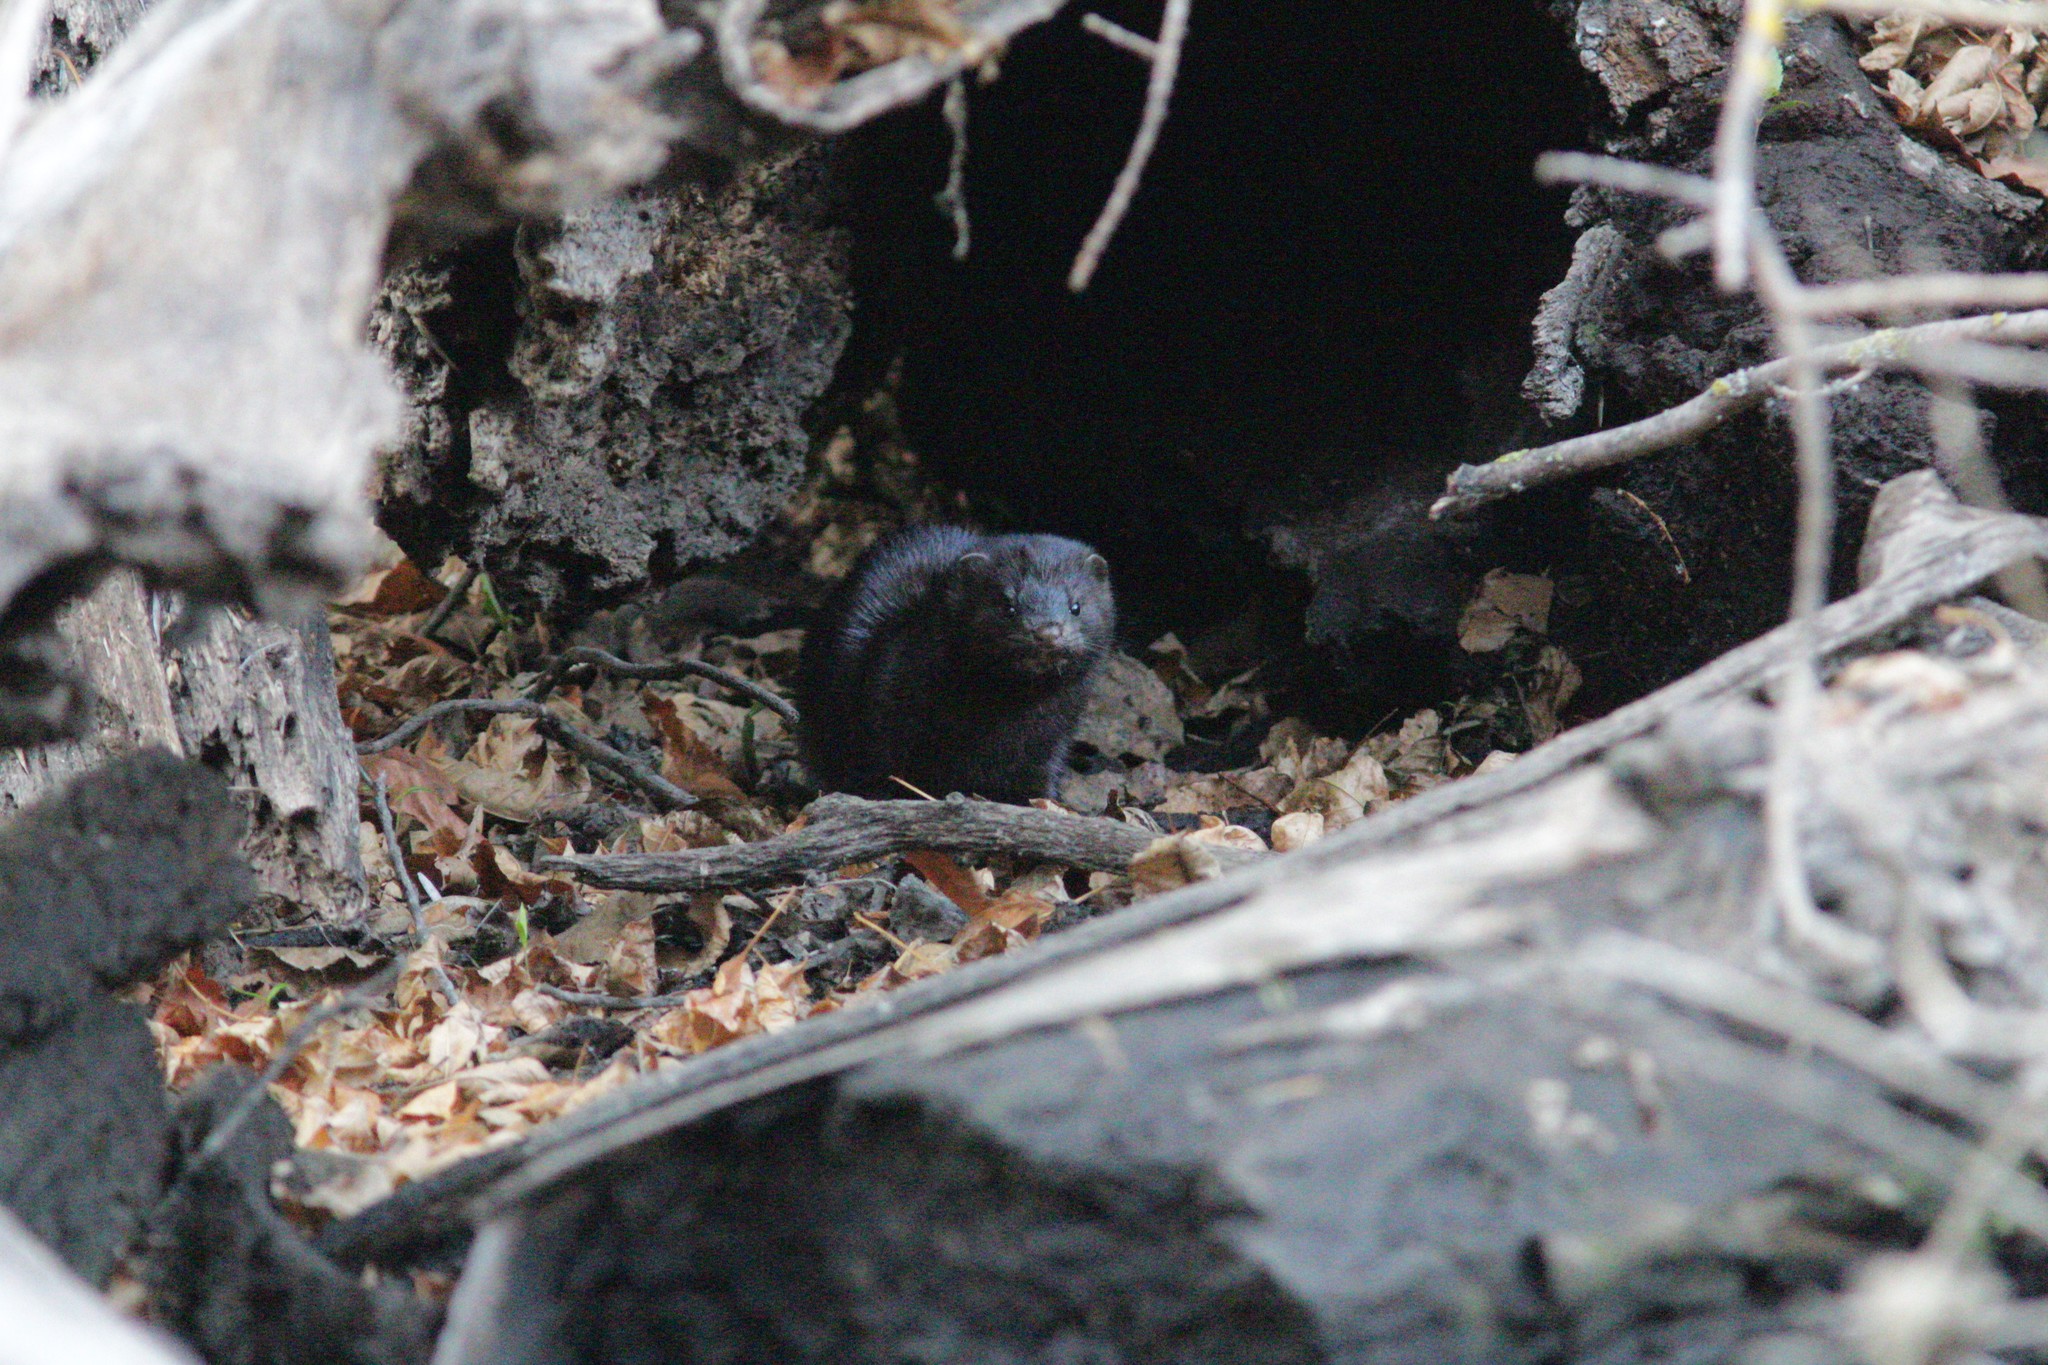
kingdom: Animalia
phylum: Chordata
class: Mammalia
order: Carnivora
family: Mustelidae
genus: Mustela
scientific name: Mustela
